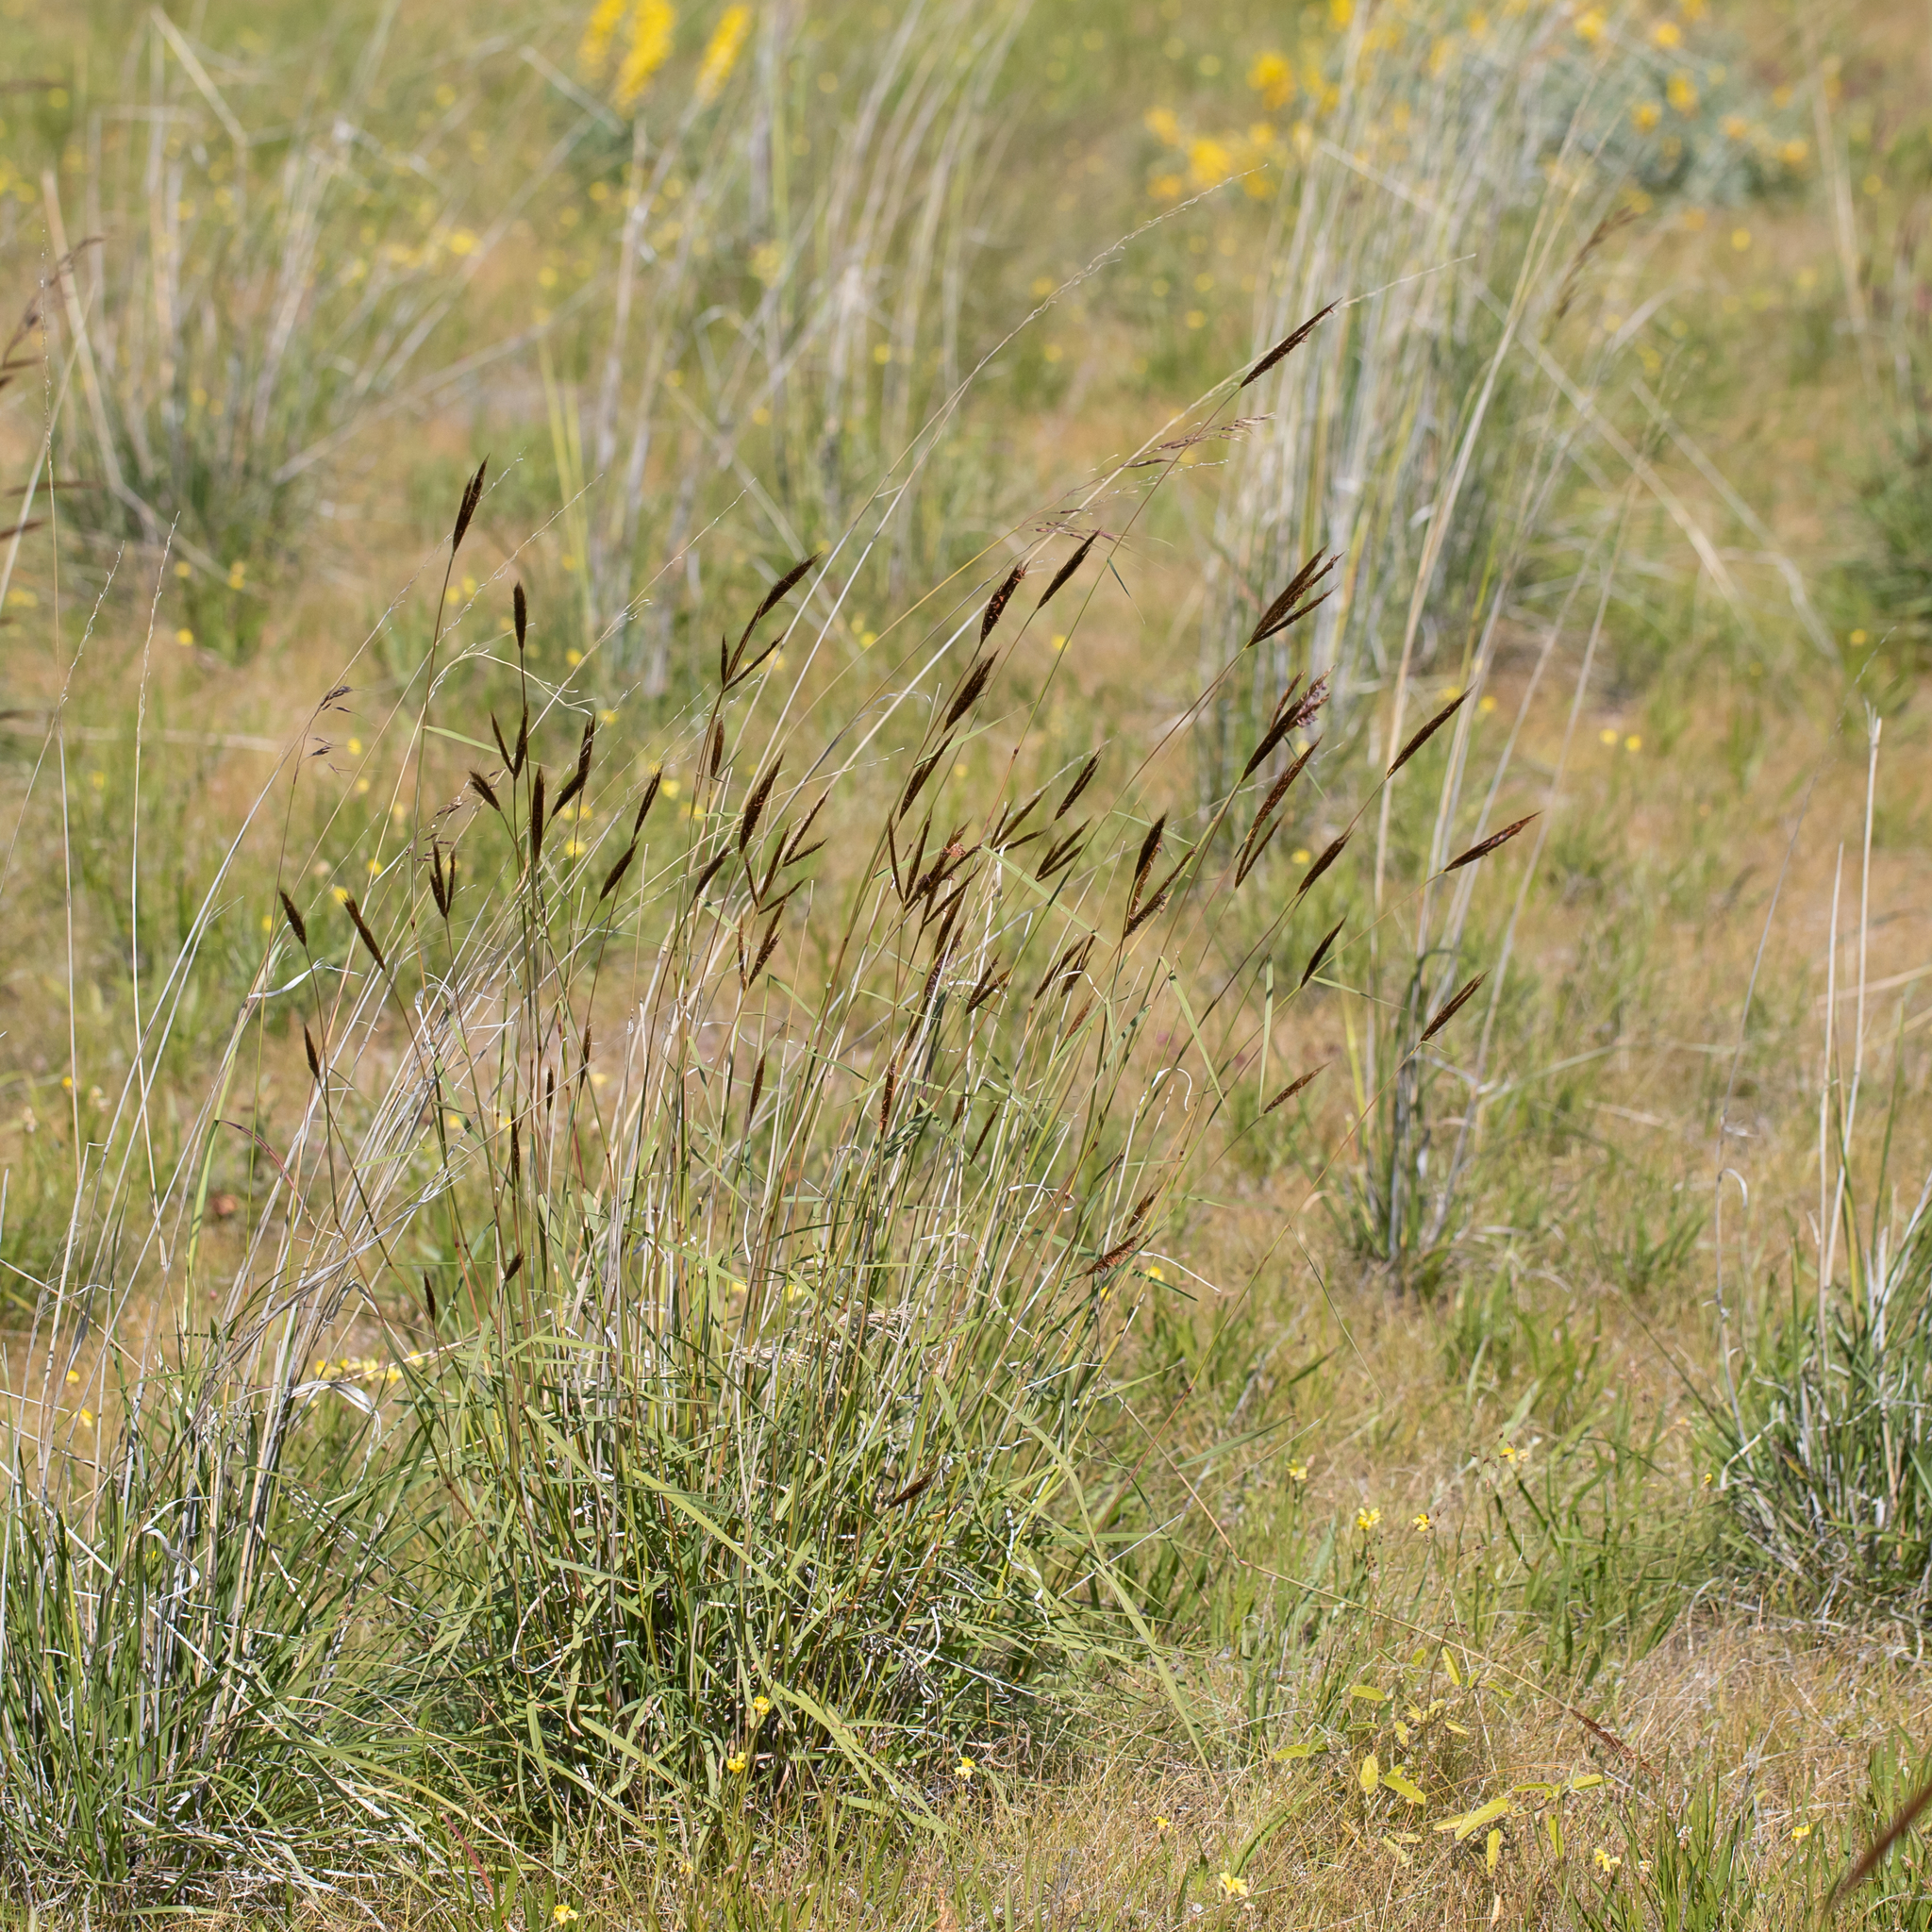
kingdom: Plantae
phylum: Tracheophyta
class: Liliopsida
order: Poales
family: Poaceae
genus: Eulalia
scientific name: Eulalia aurea
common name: Silky browntop
